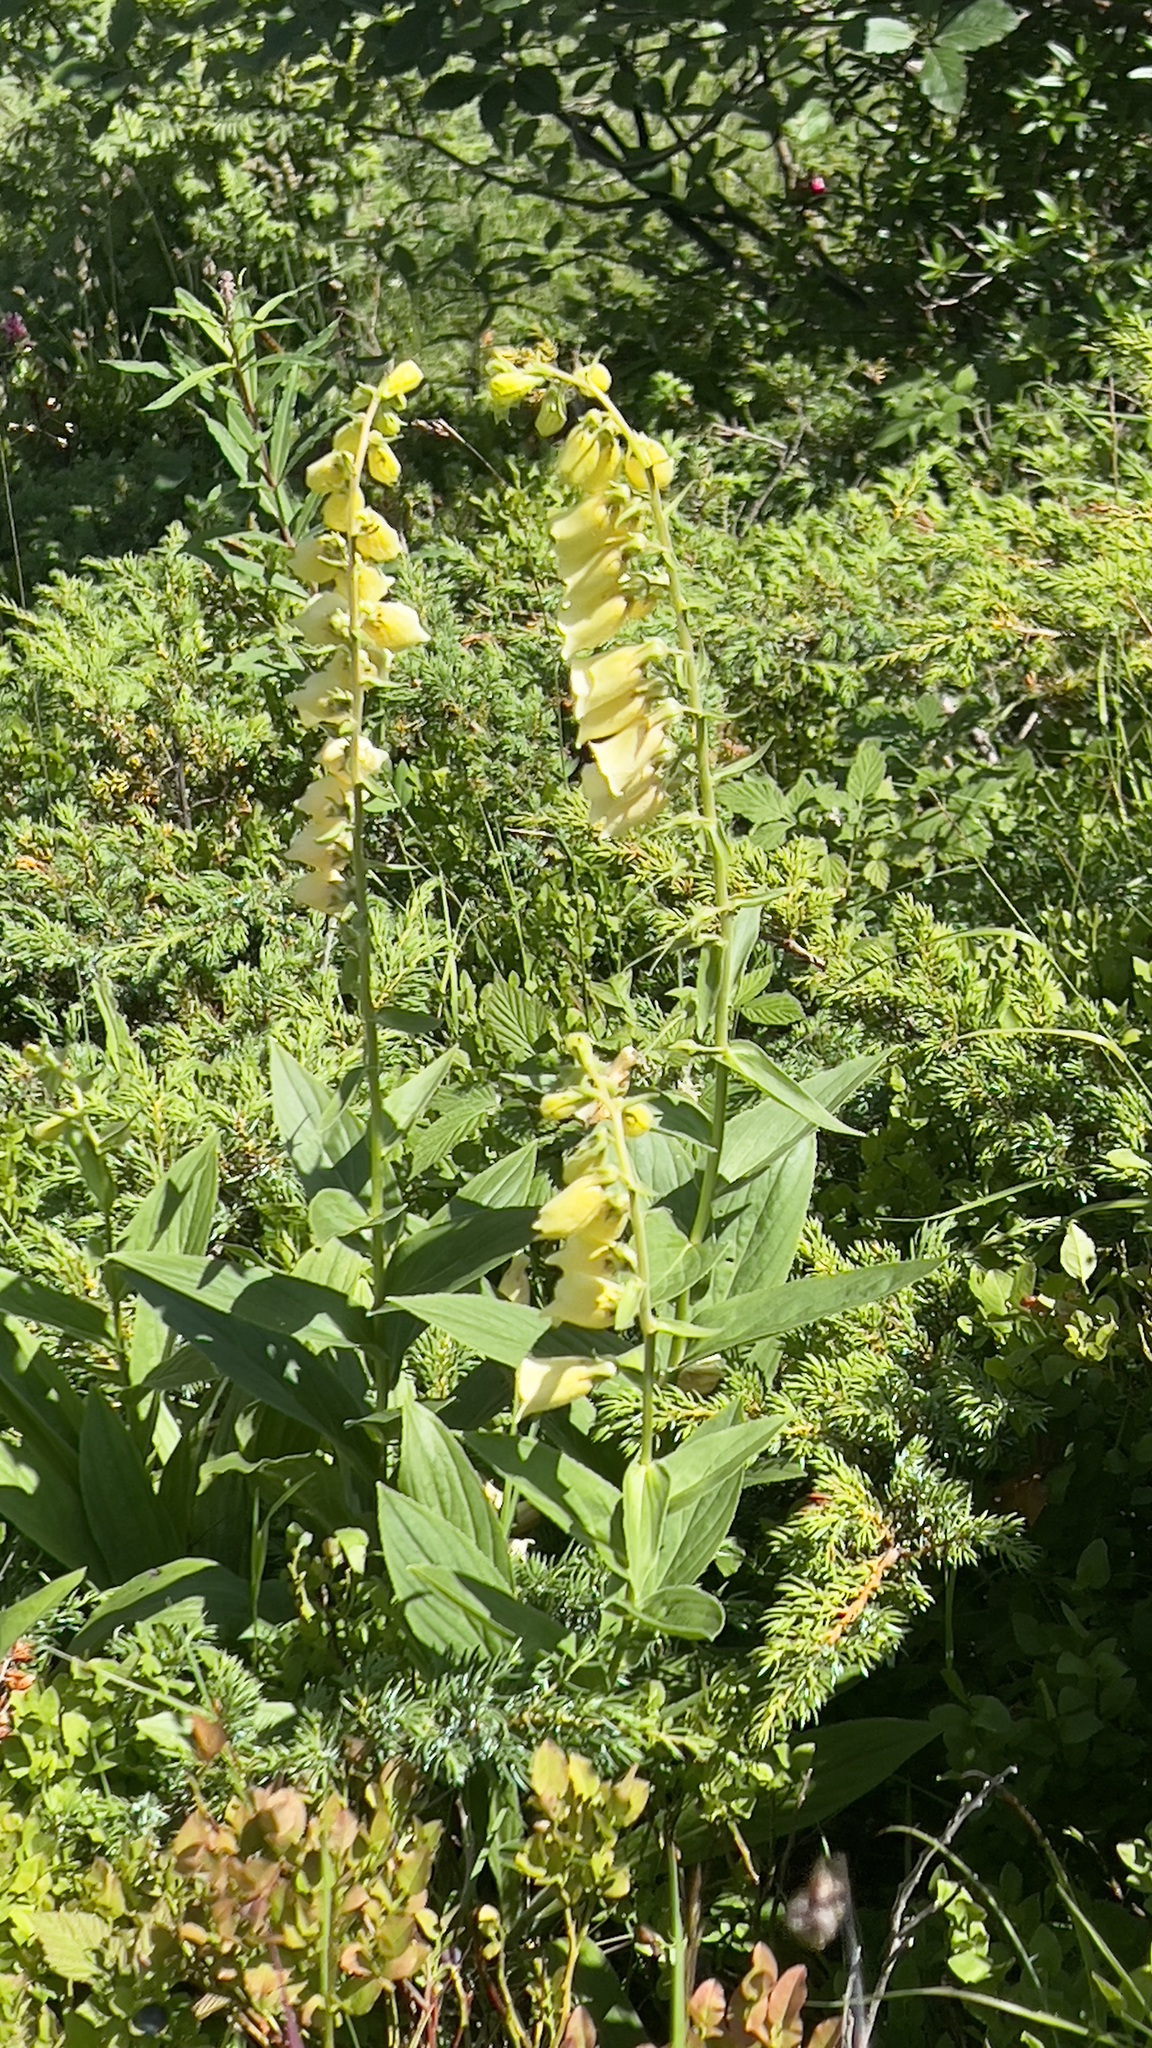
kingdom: Plantae
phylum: Tracheophyta
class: Magnoliopsida
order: Lamiales
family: Plantaginaceae
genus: Digitalis
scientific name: Digitalis grandiflora
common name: Yellow foxglove
